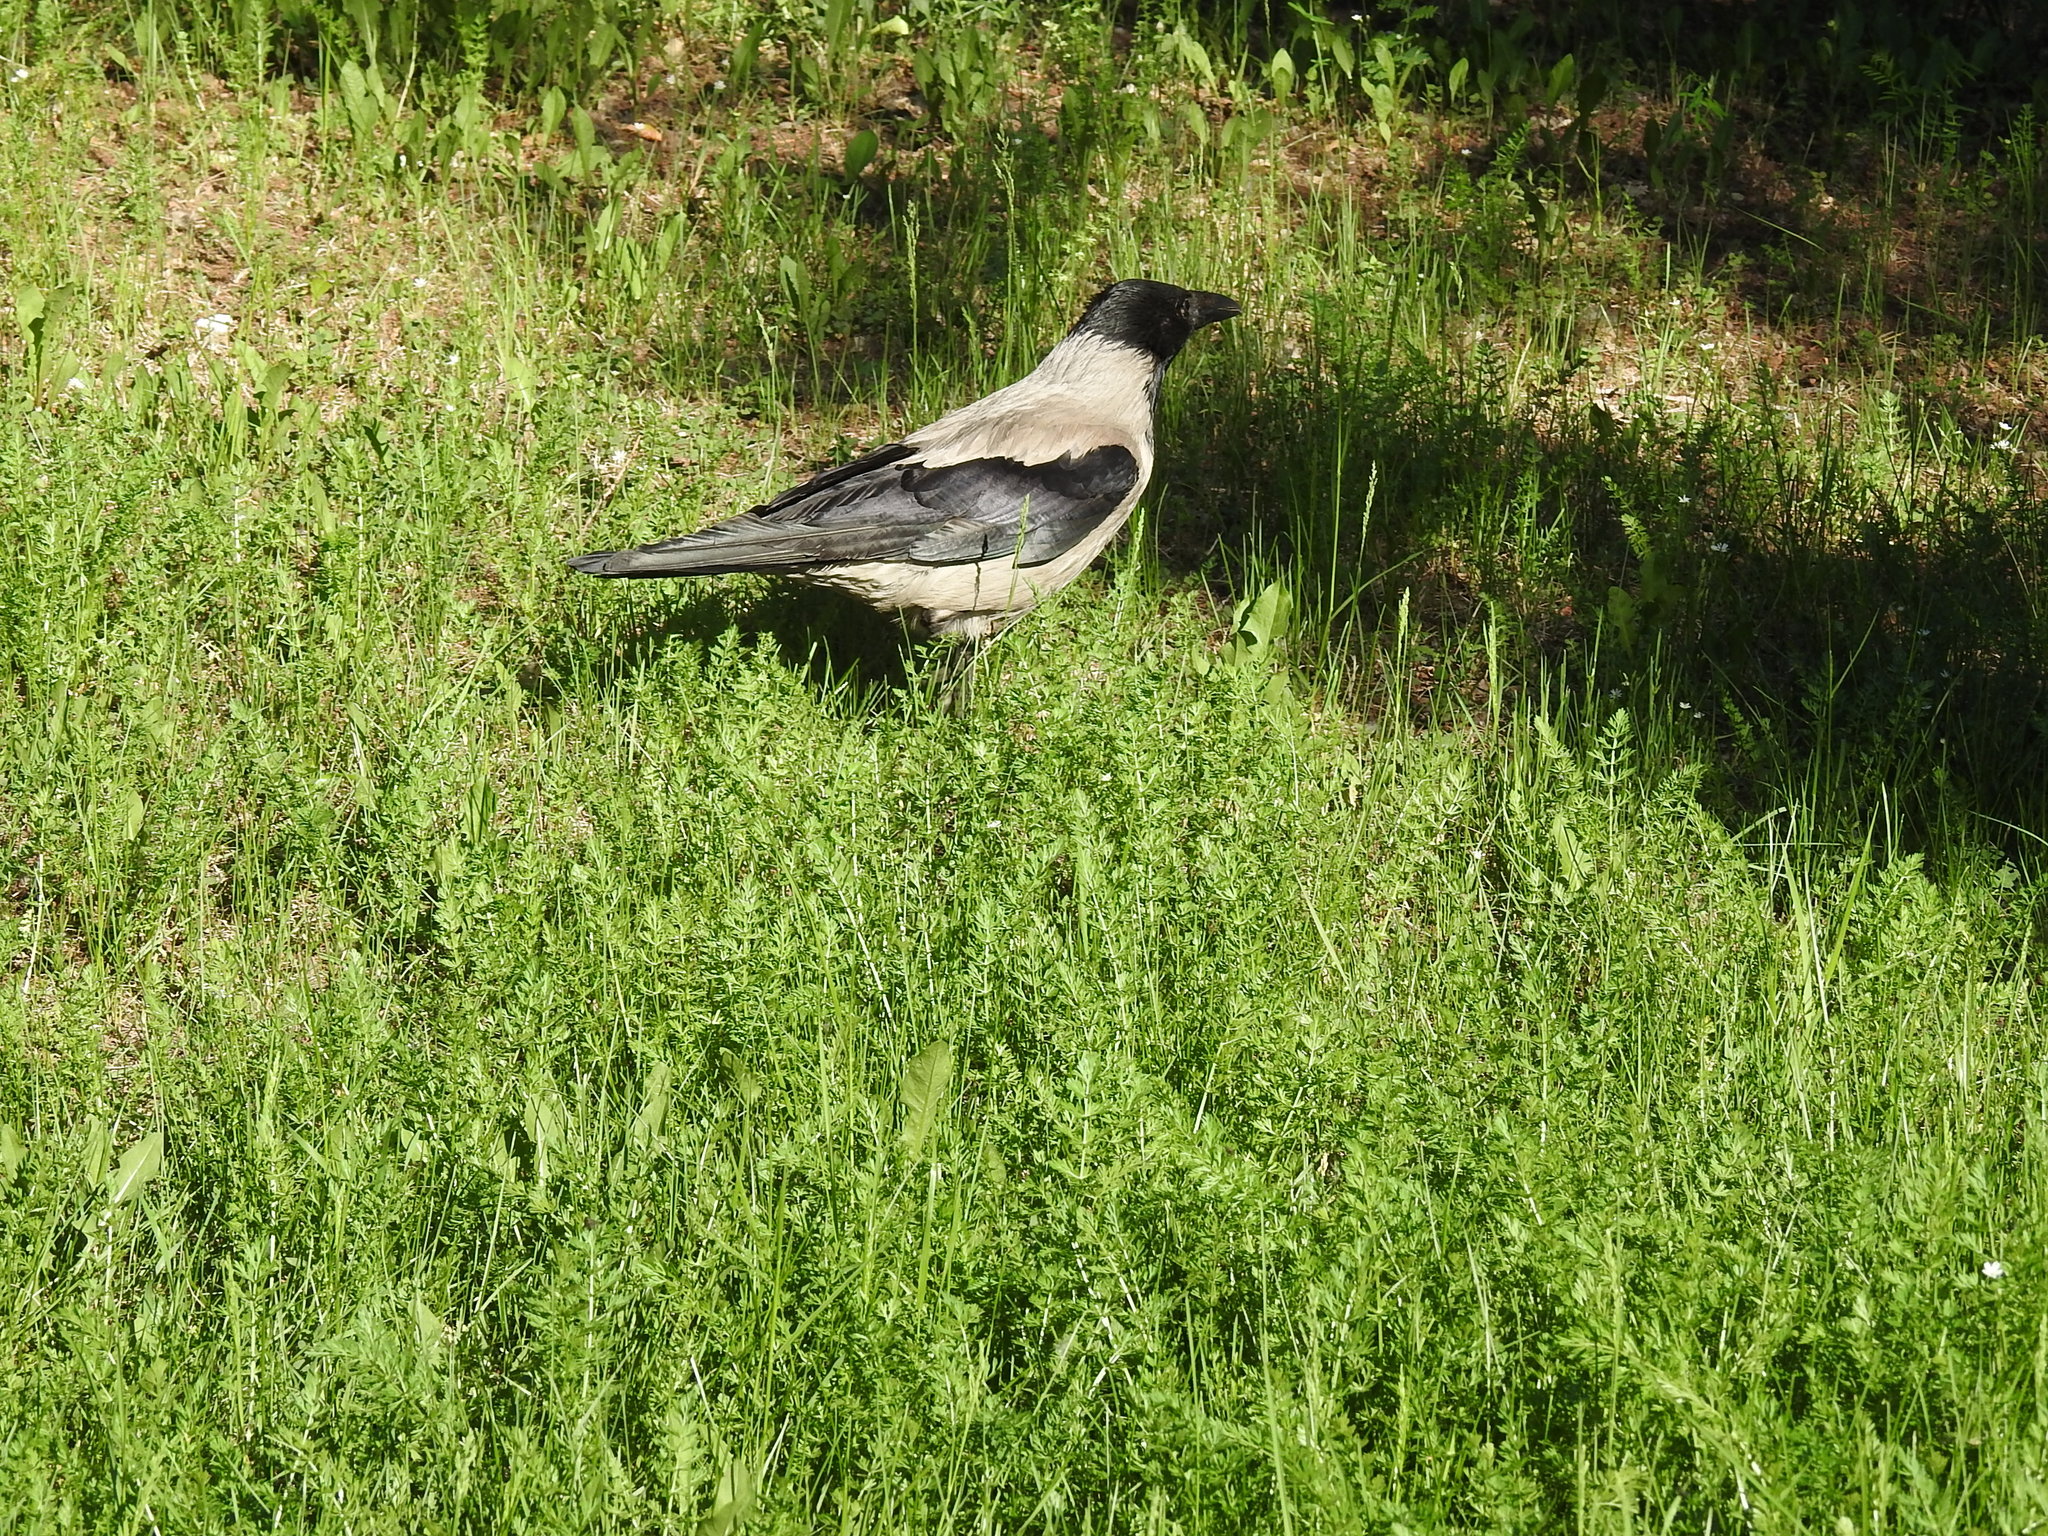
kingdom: Animalia
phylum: Chordata
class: Aves
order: Passeriformes
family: Corvidae
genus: Corvus
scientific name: Corvus cornix
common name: Hooded crow
